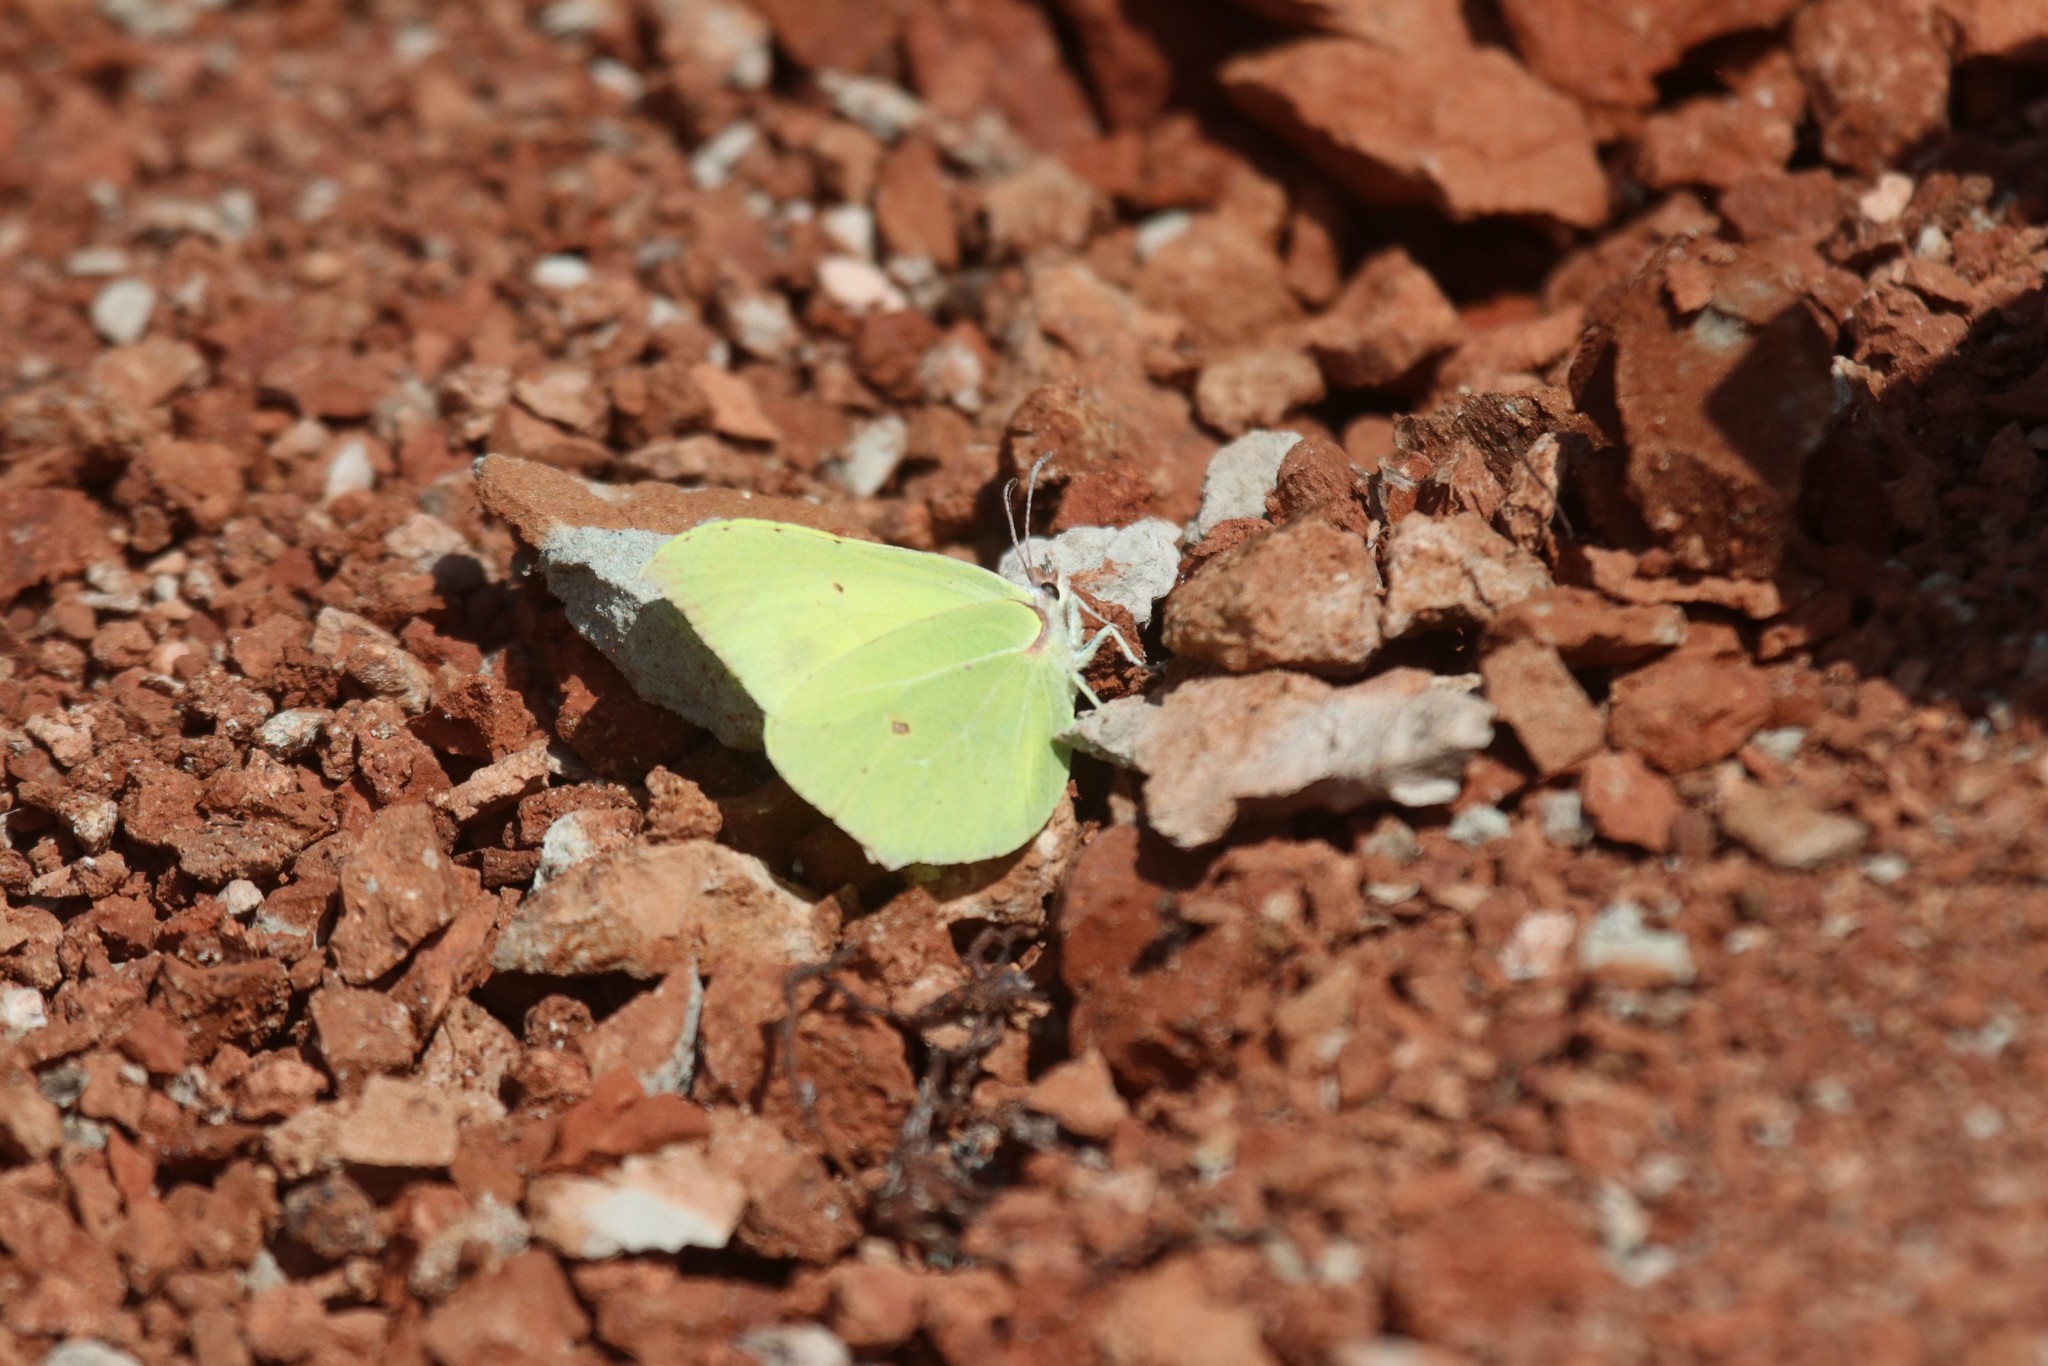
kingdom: Animalia
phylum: Arthropoda
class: Insecta
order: Lepidoptera
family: Pieridae
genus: Gonepteryx
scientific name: Gonepteryx rhamni
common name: Brimstone
